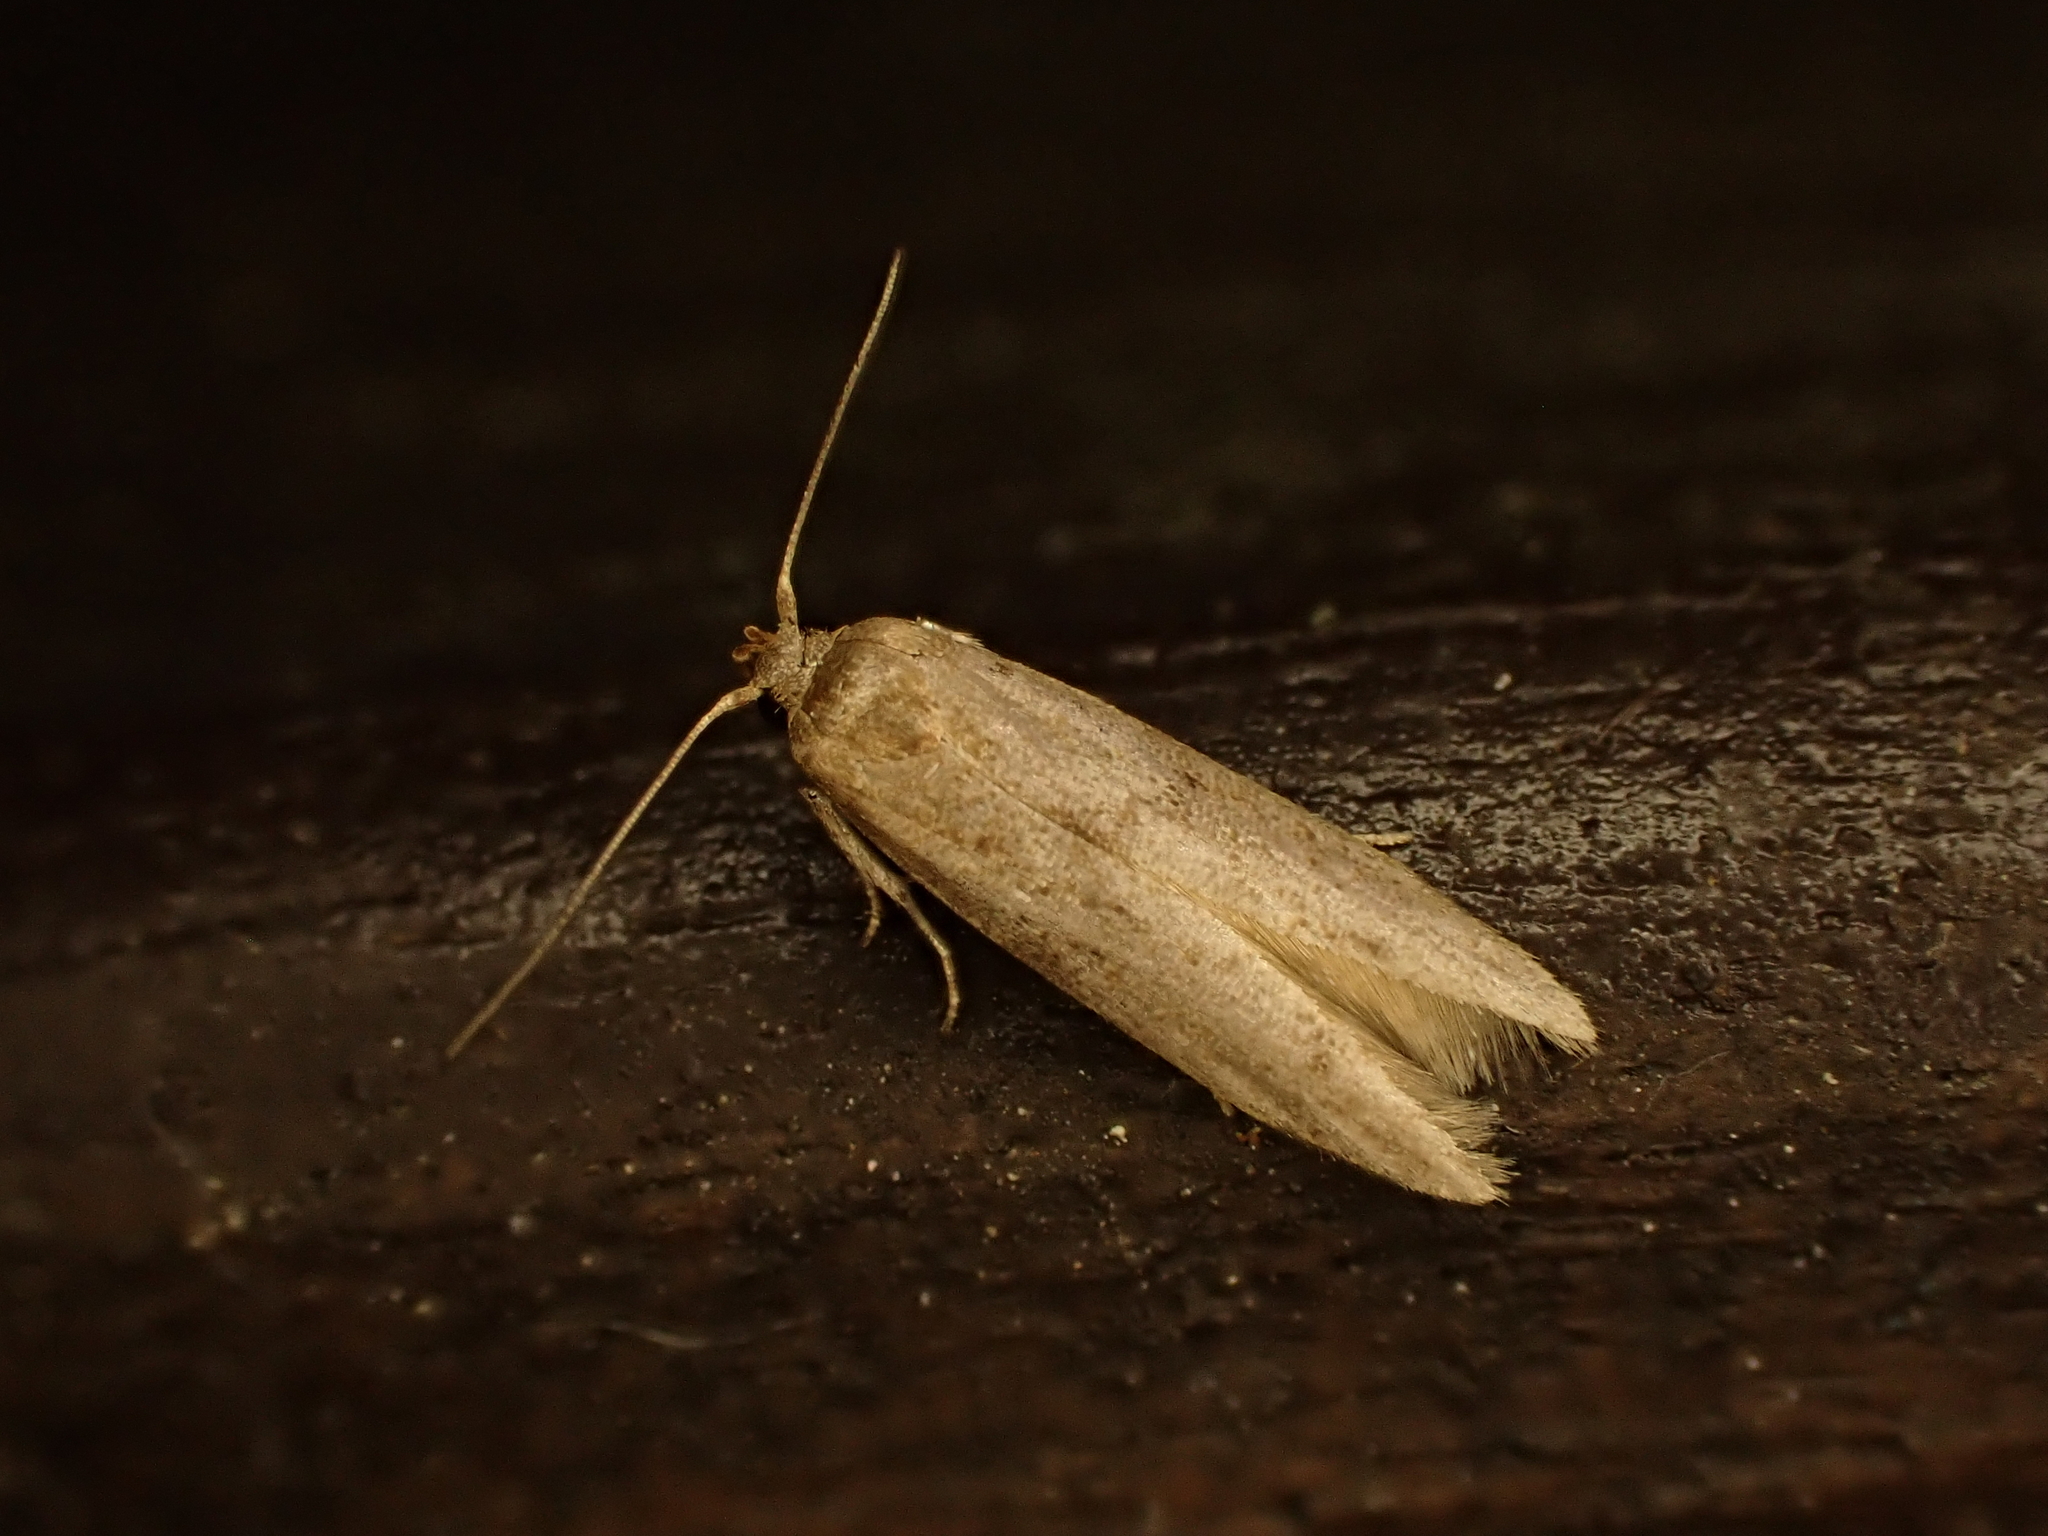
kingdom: Animalia
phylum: Arthropoda
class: Insecta
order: Lepidoptera
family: Blastobasidae
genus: Blastobasis
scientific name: Blastobasis tarda
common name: Blastobasid moth
